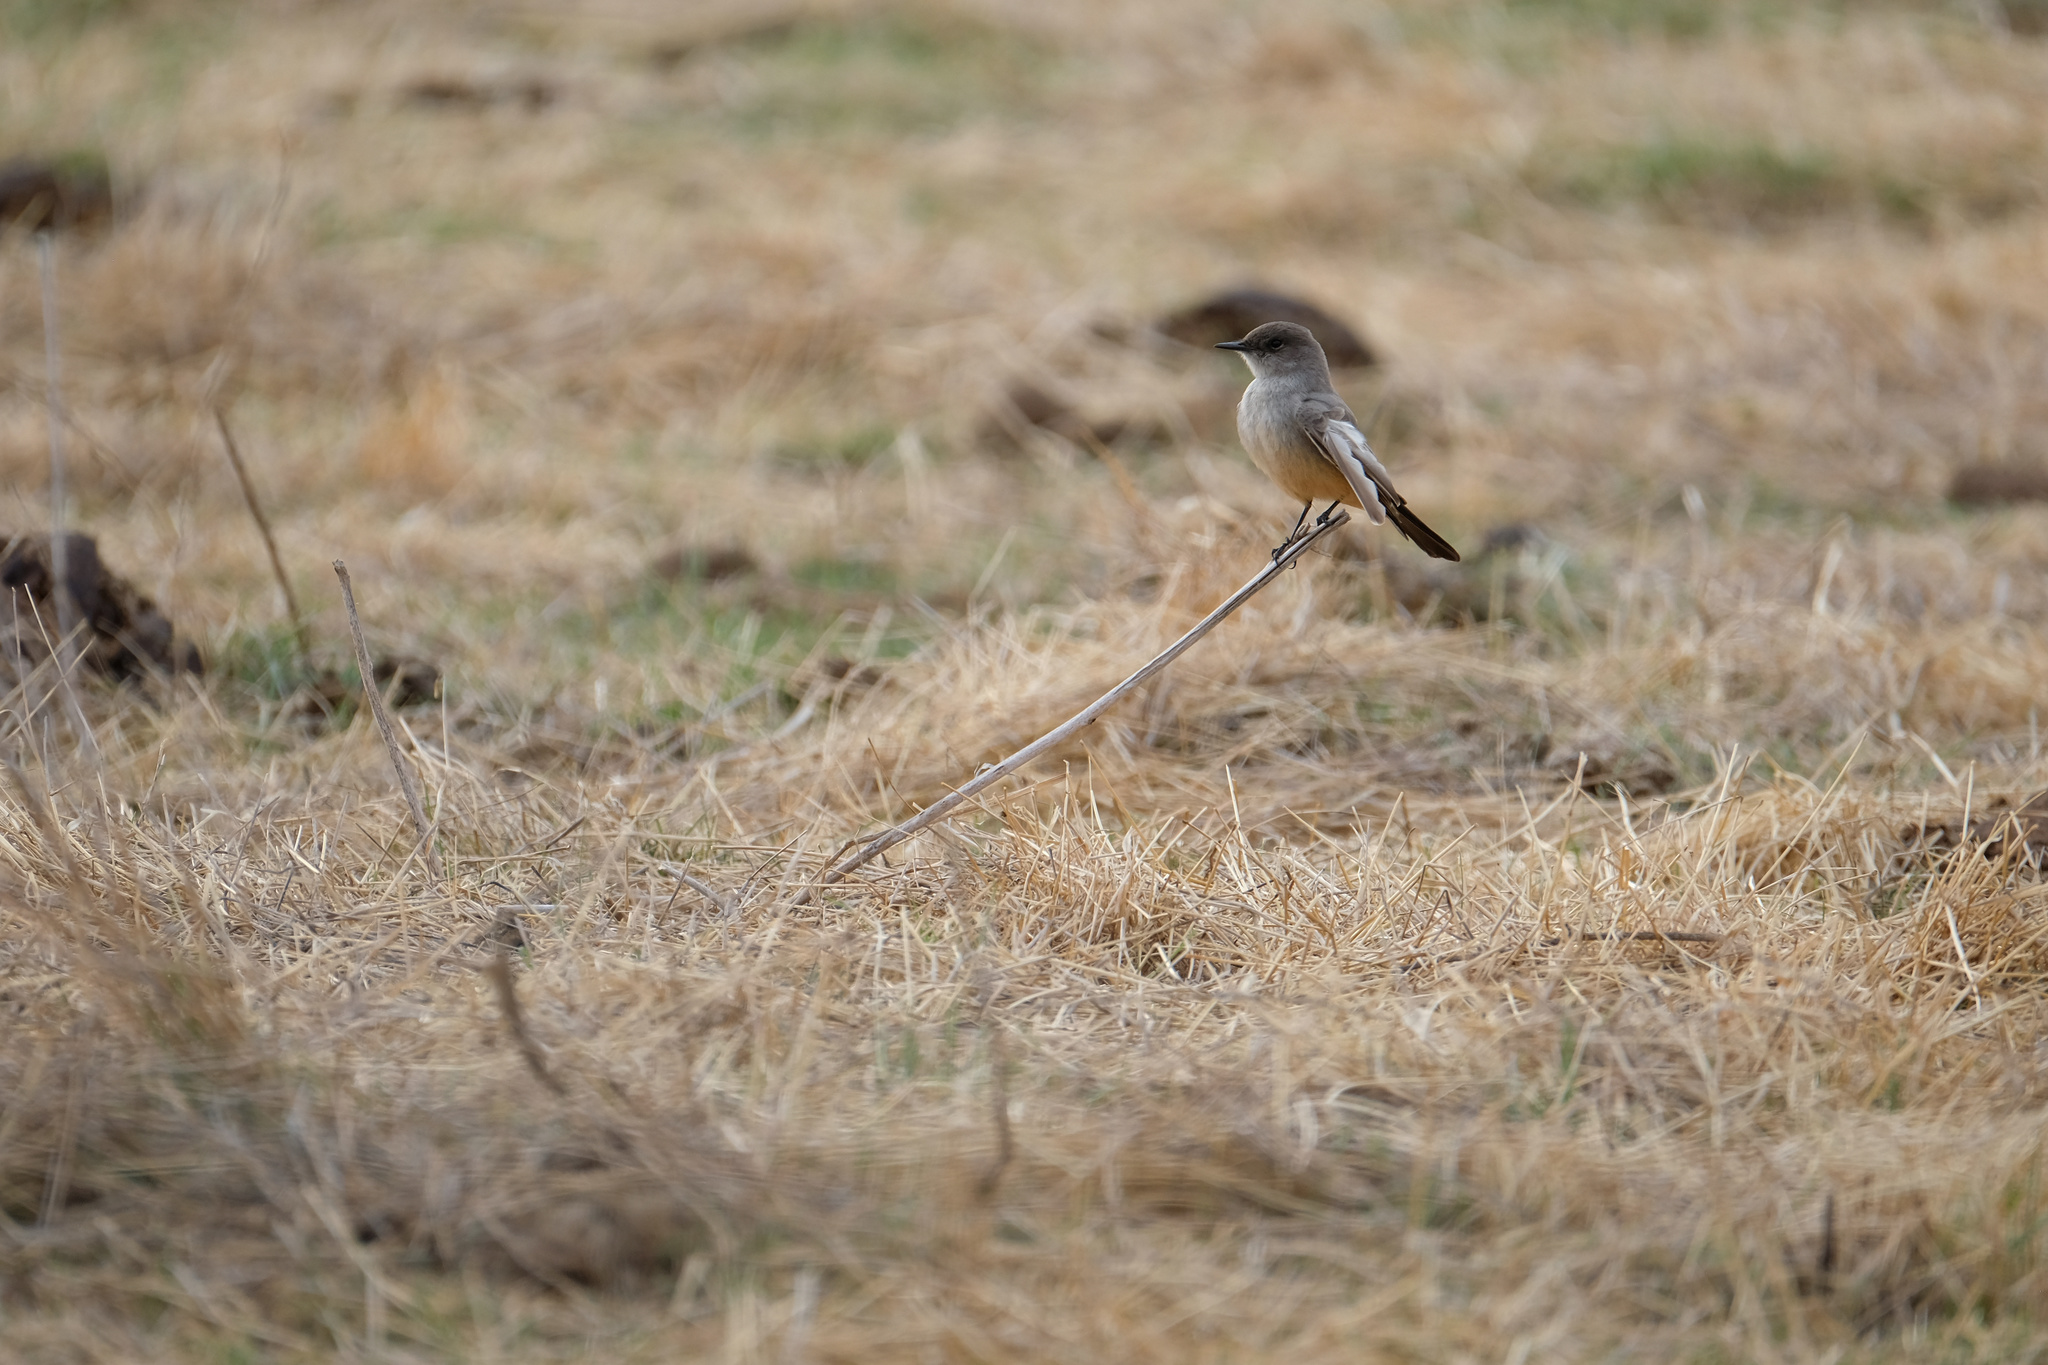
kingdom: Animalia
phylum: Chordata
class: Aves
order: Passeriformes
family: Tyrannidae
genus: Sayornis
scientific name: Sayornis saya
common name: Say's phoebe
